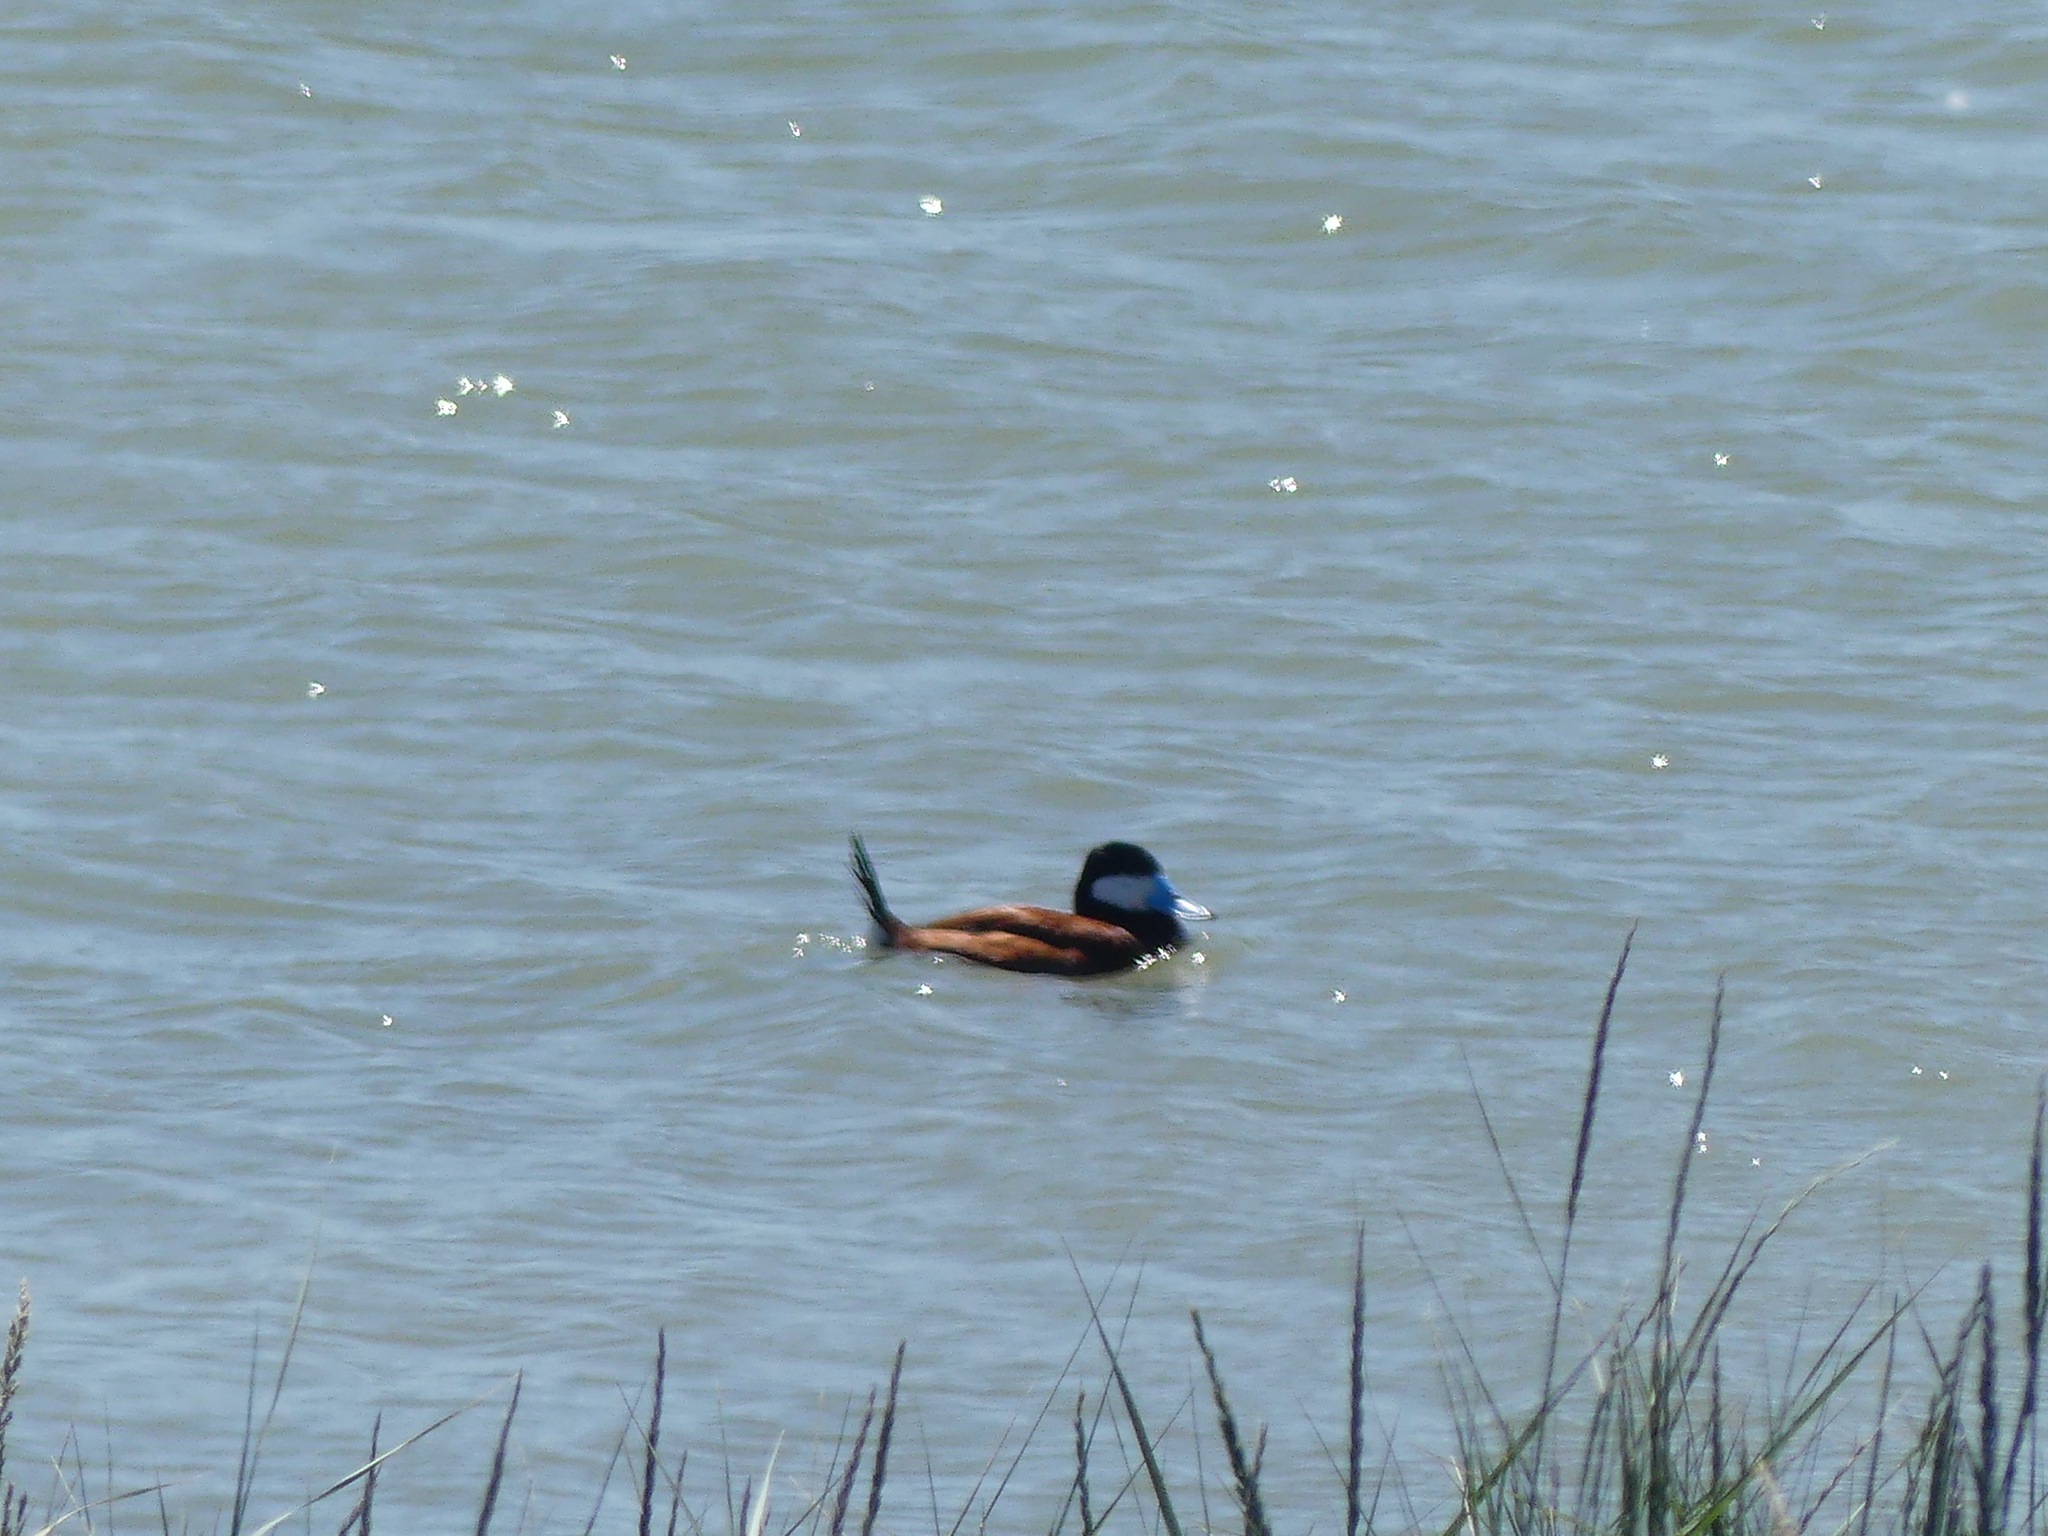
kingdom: Animalia
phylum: Chordata
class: Aves
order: Anseriformes
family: Anatidae
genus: Oxyura
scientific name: Oxyura jamaicensis
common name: Ruddy duck
